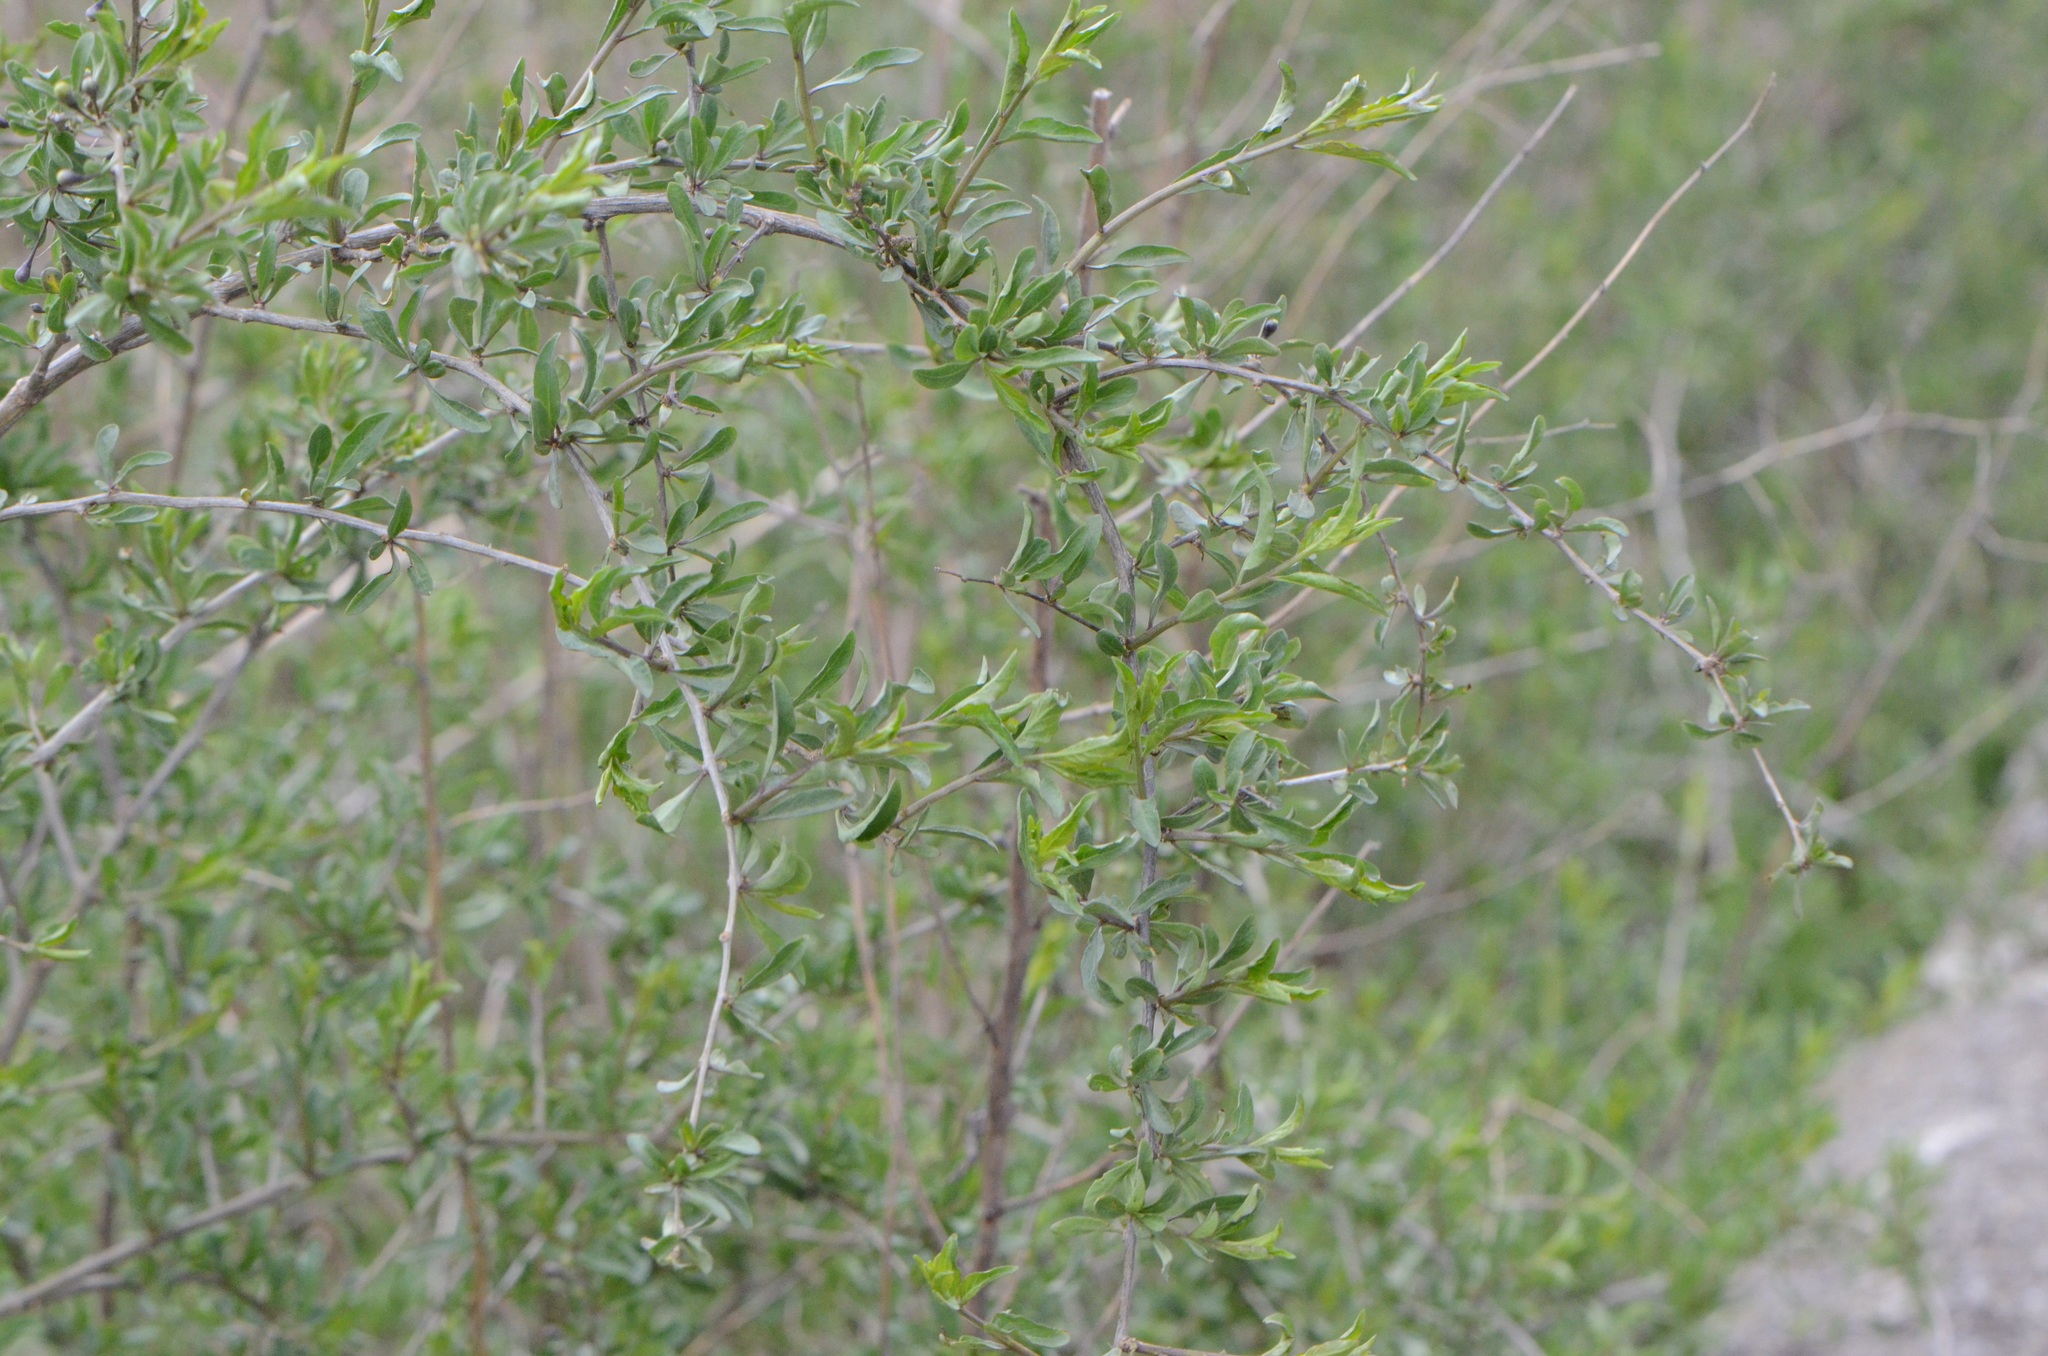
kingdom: Plantae
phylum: Tracheophyta
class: Magnoliopsida
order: Solanales
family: Solanaceae
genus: Lycium
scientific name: Lycium barbarum
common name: Duke of argyll's teaplant
